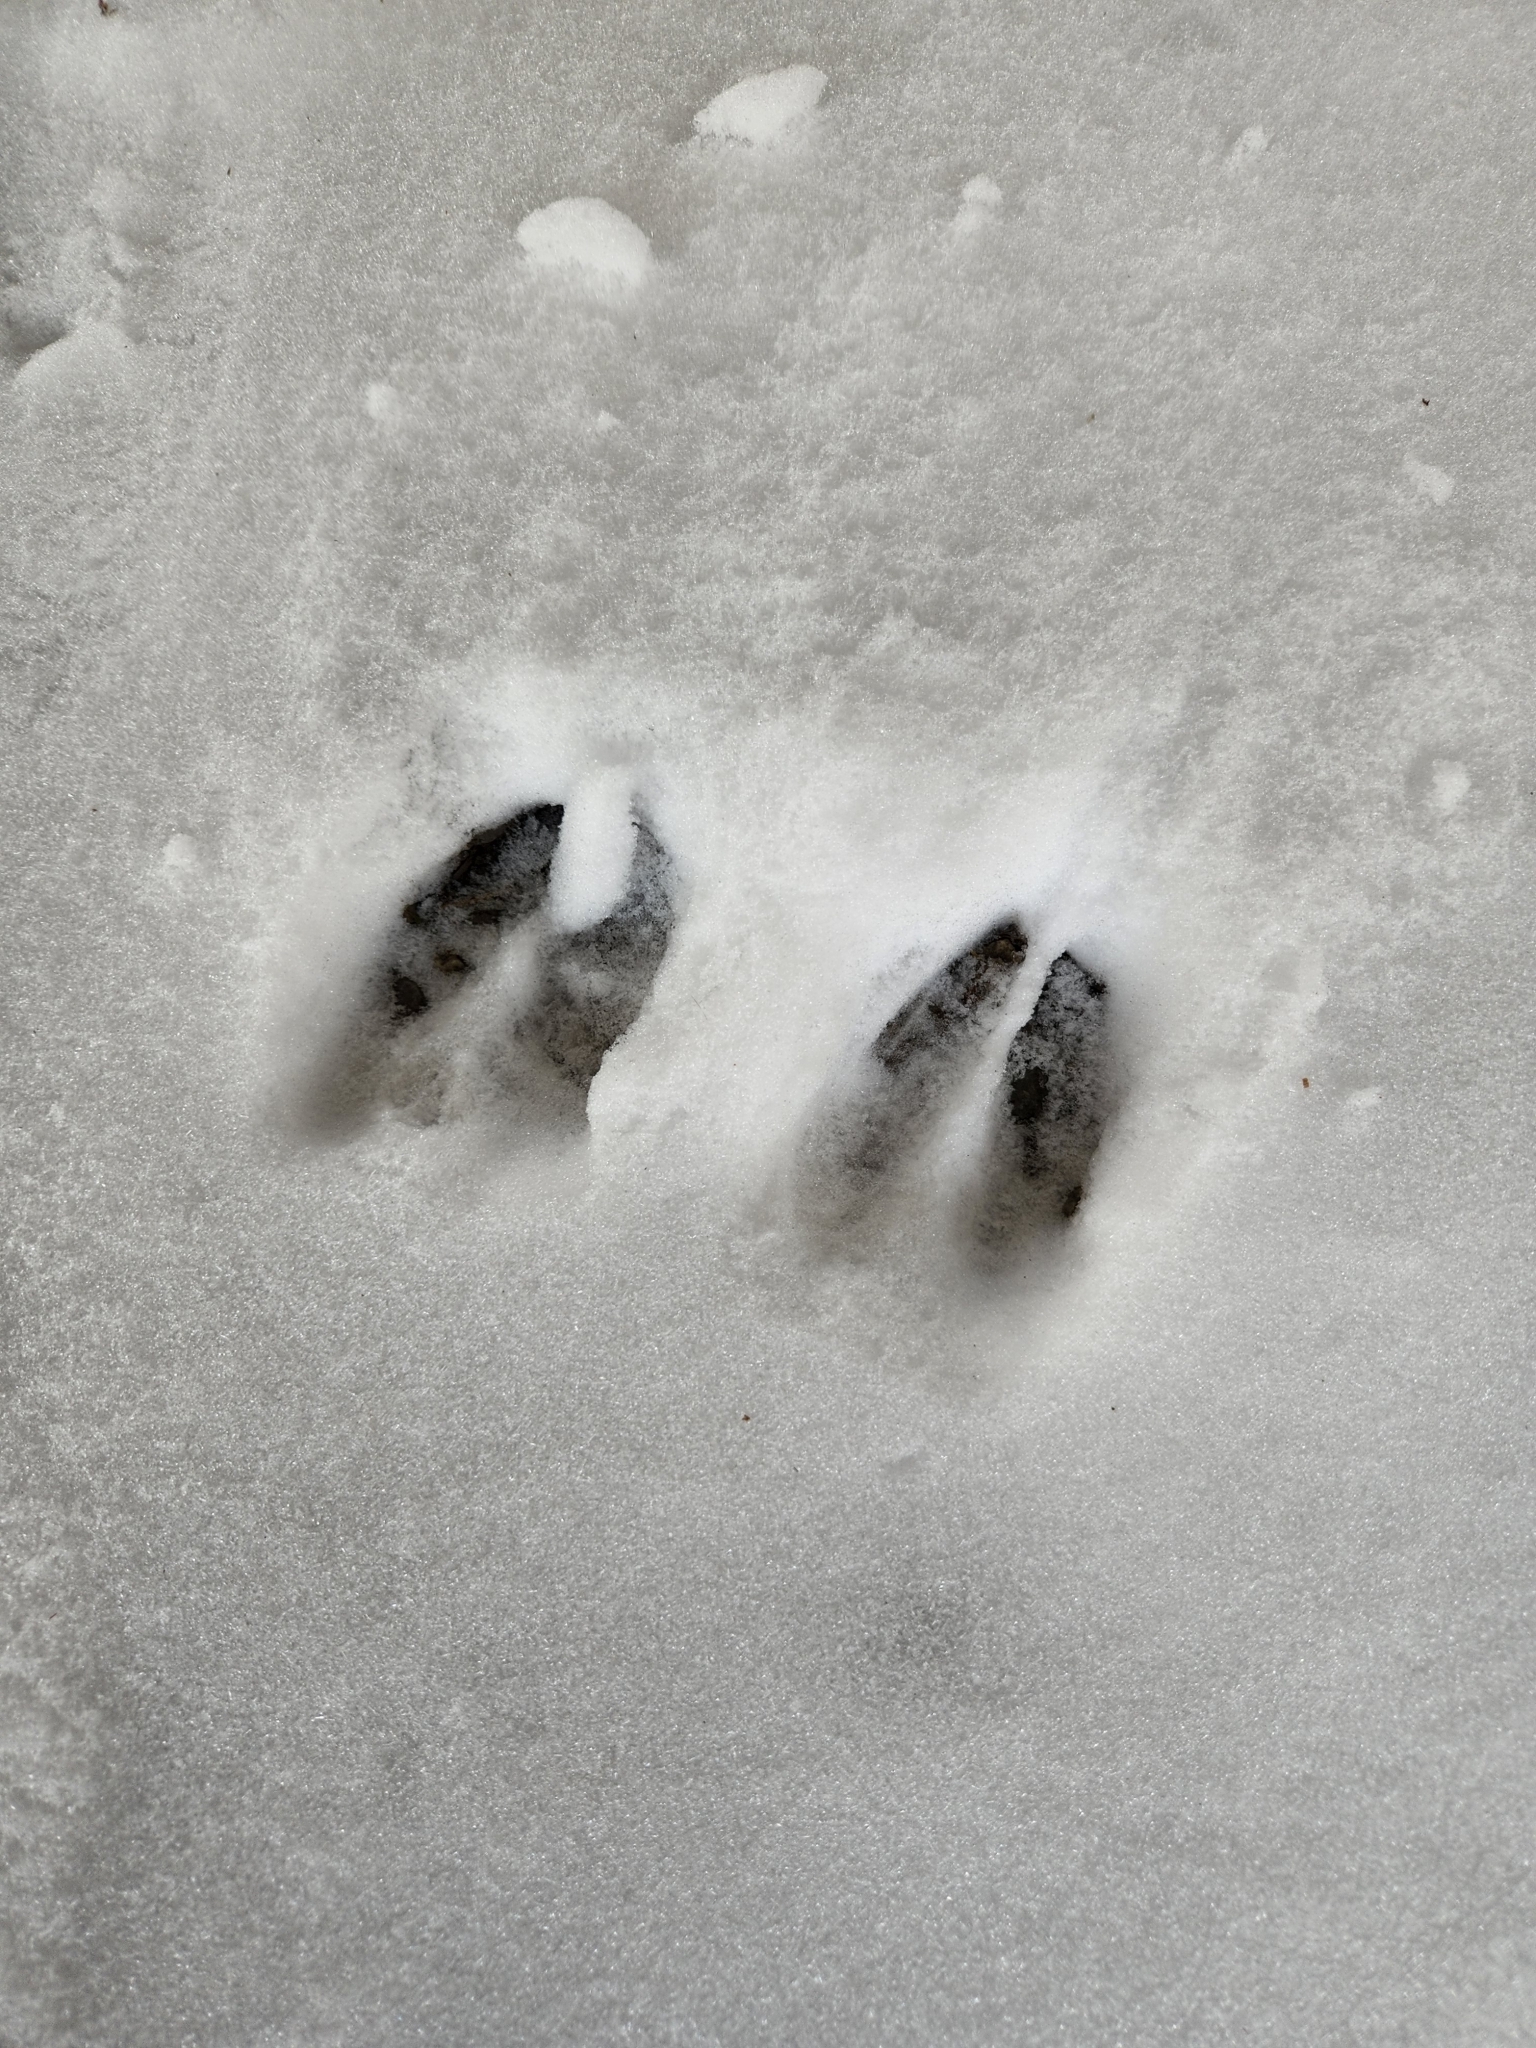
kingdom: Animalia
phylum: Chordata
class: Mammalia
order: Artiodactyla
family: Cervidae
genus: Odocoileus
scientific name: Odocoileus virginianus
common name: White-tailed deer
